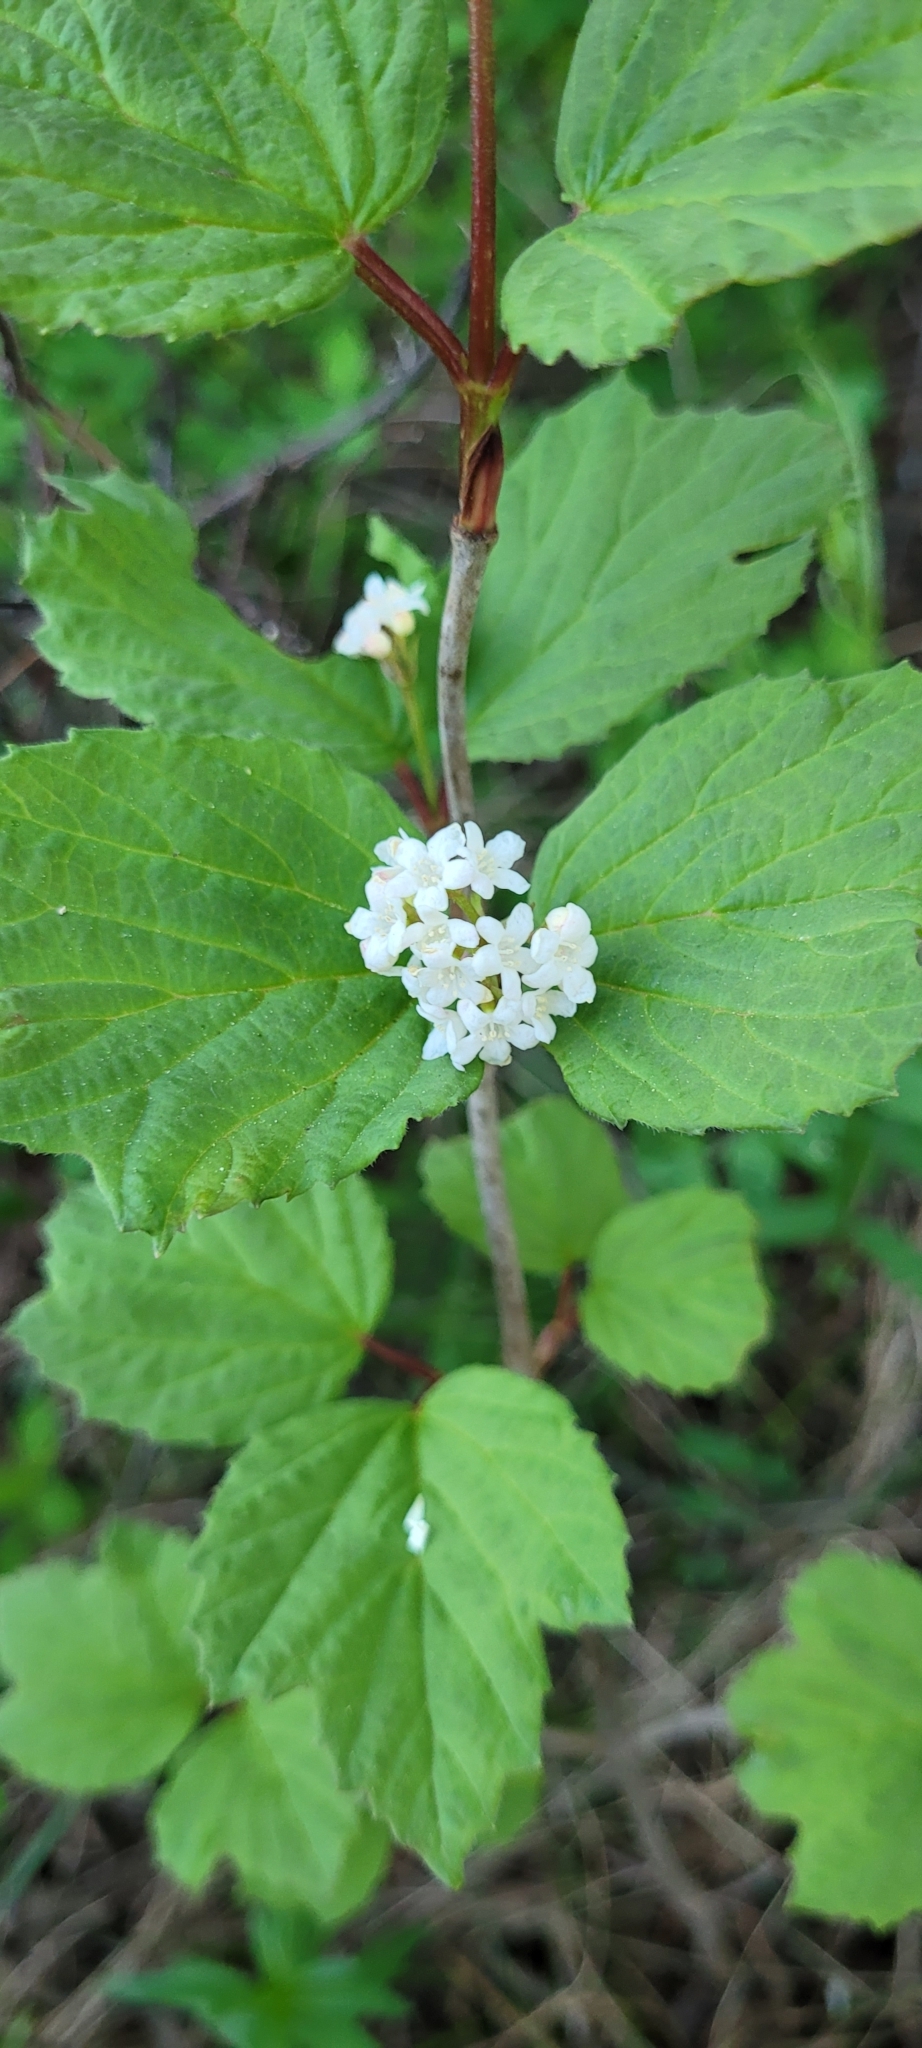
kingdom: Plantae
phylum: Tracheophyta
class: Magnoliopsida
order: Dipsacales
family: Viburnaceae
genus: Viburnum
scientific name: Viburnum edule
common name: Mooseberry
